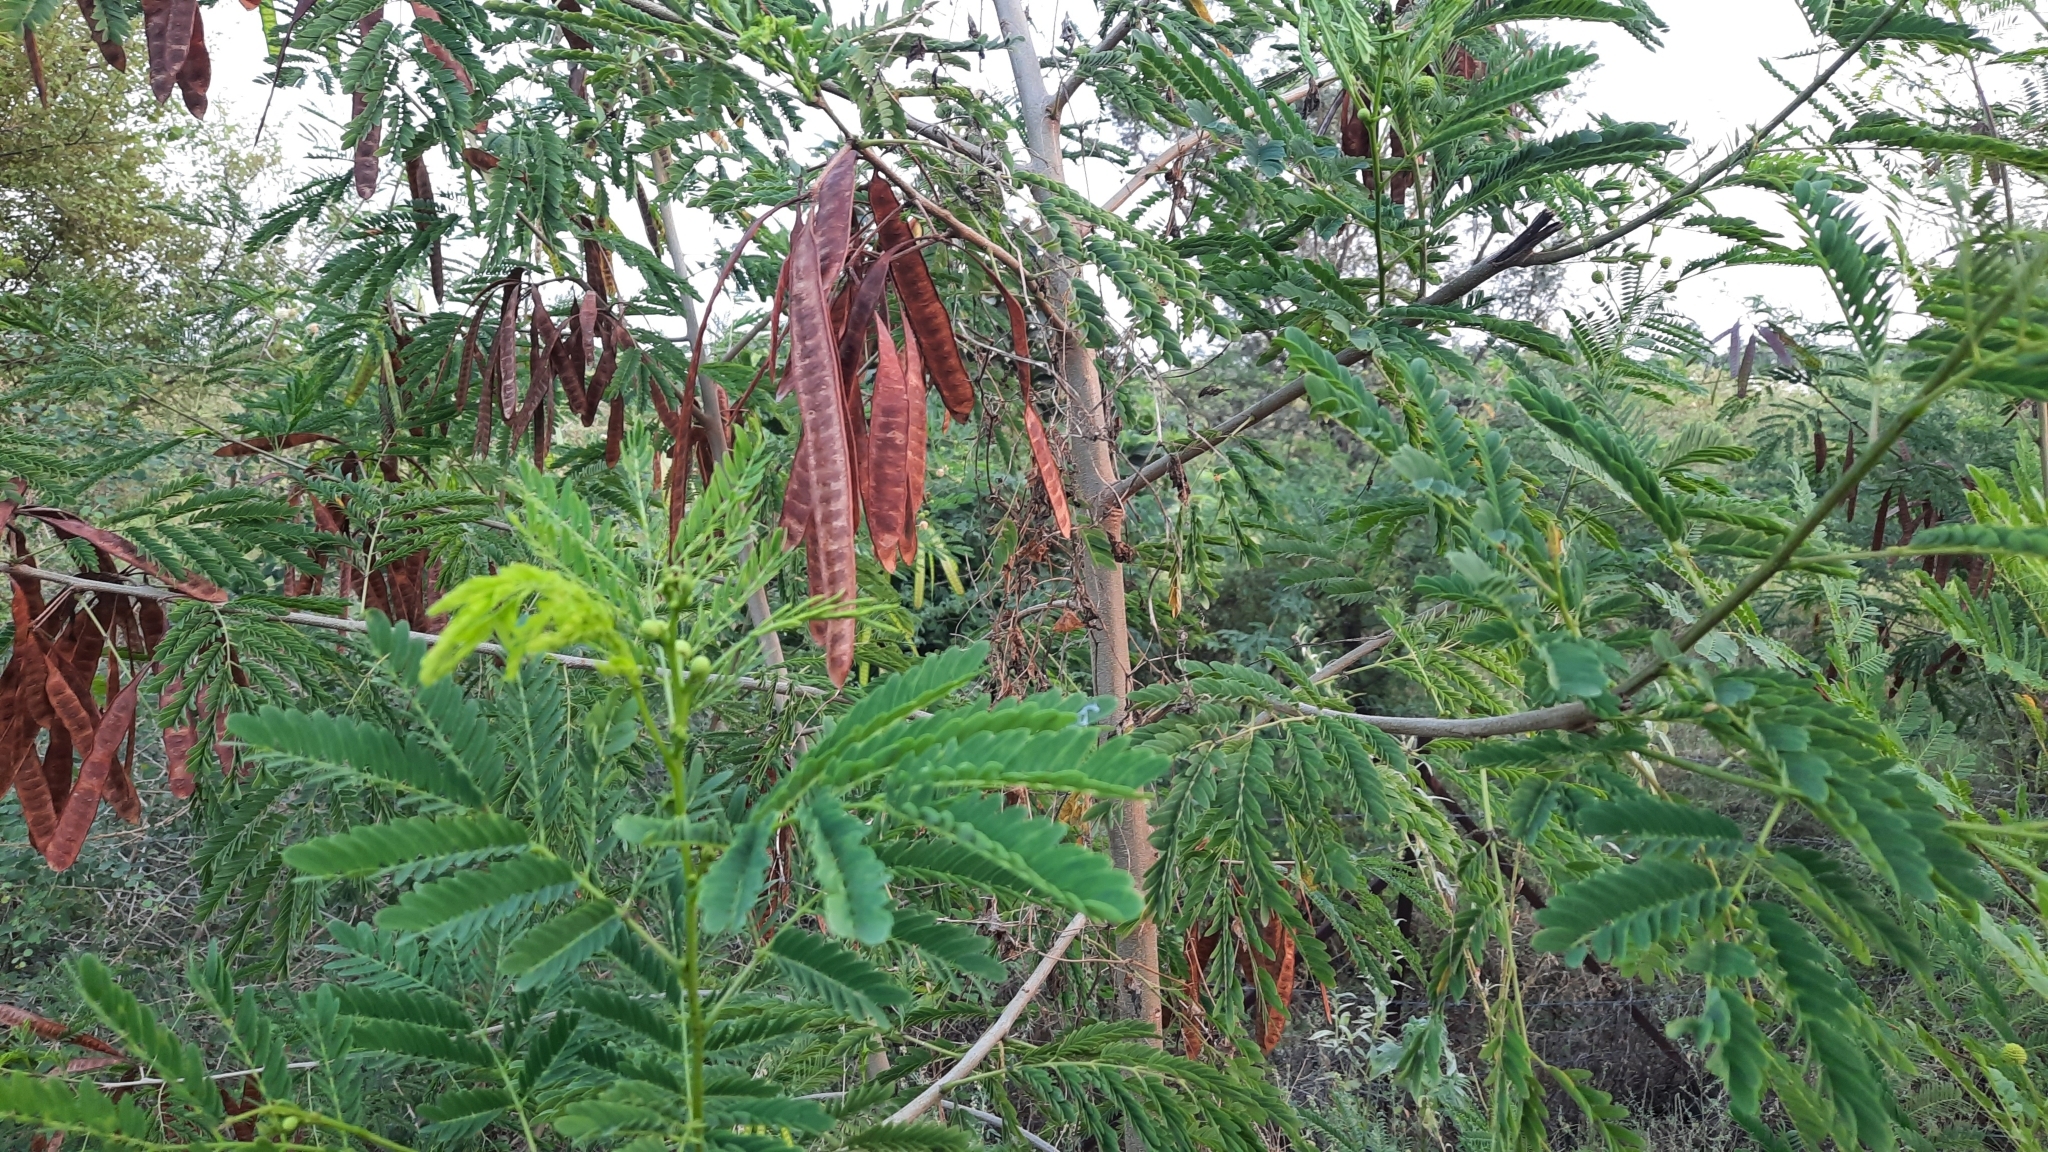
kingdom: Plantae
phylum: Tracheophyta
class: Magnoliopsida
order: Fabales
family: Fabaceae
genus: Leucaena
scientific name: Leucaena leucocephala
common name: White leadtree
